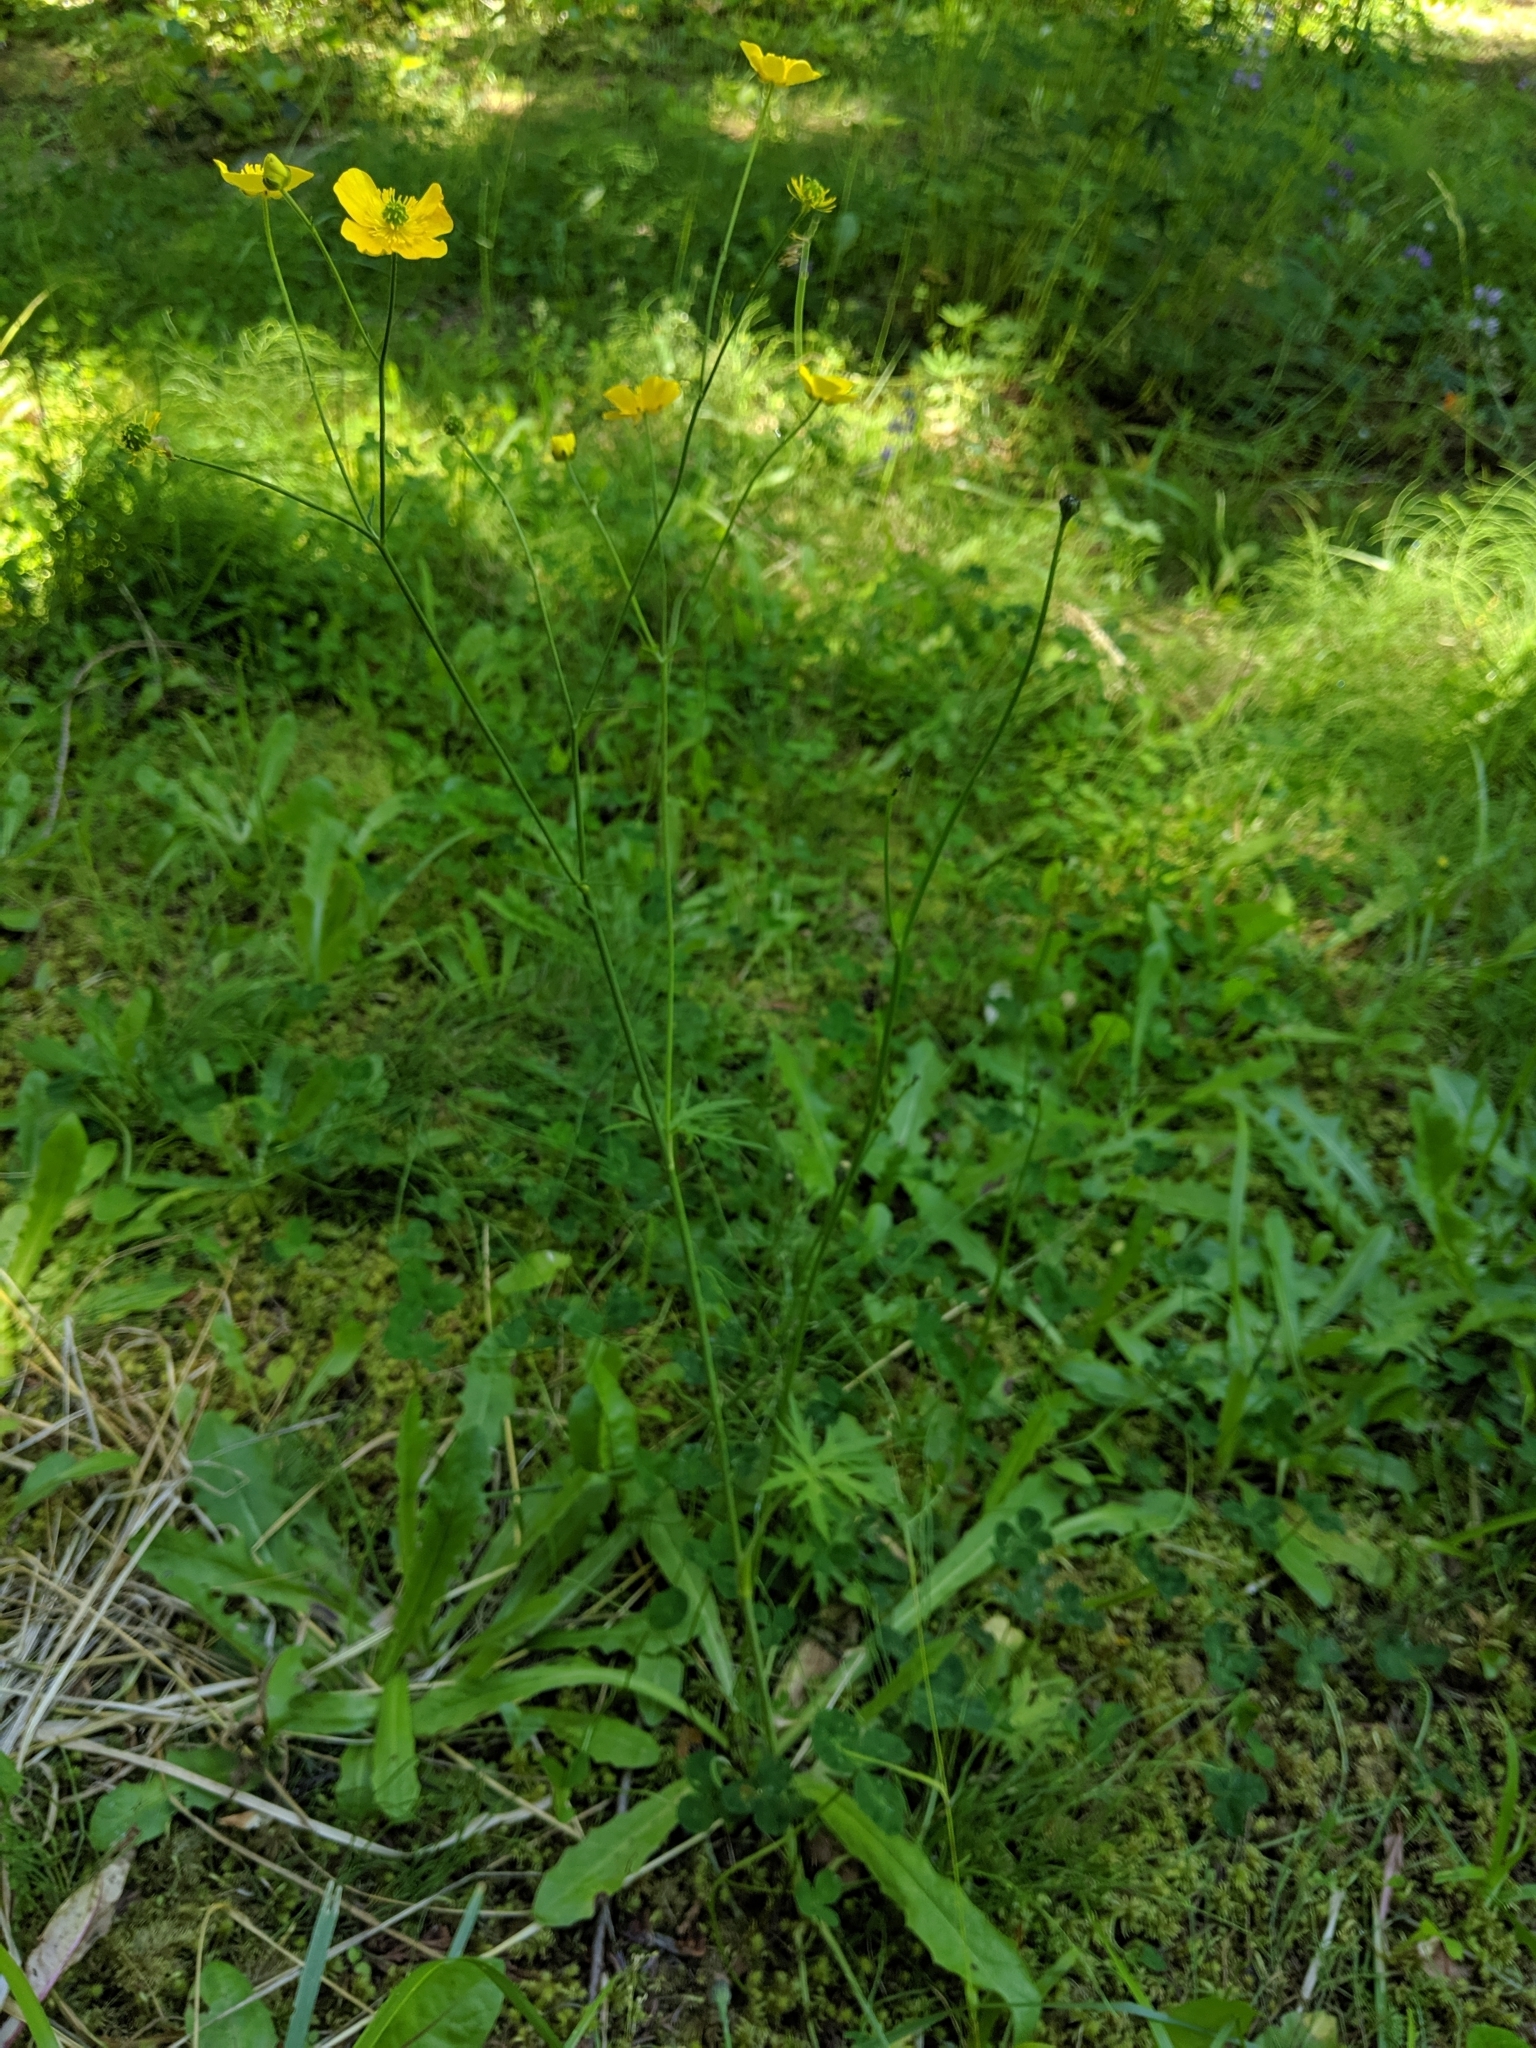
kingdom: Plantae
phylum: Tracheophyta
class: Magnoliopsida
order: Ranunculales
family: Ranunculaceae
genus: Ranunculus
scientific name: Ranunculus acris
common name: Meadow buttercup
